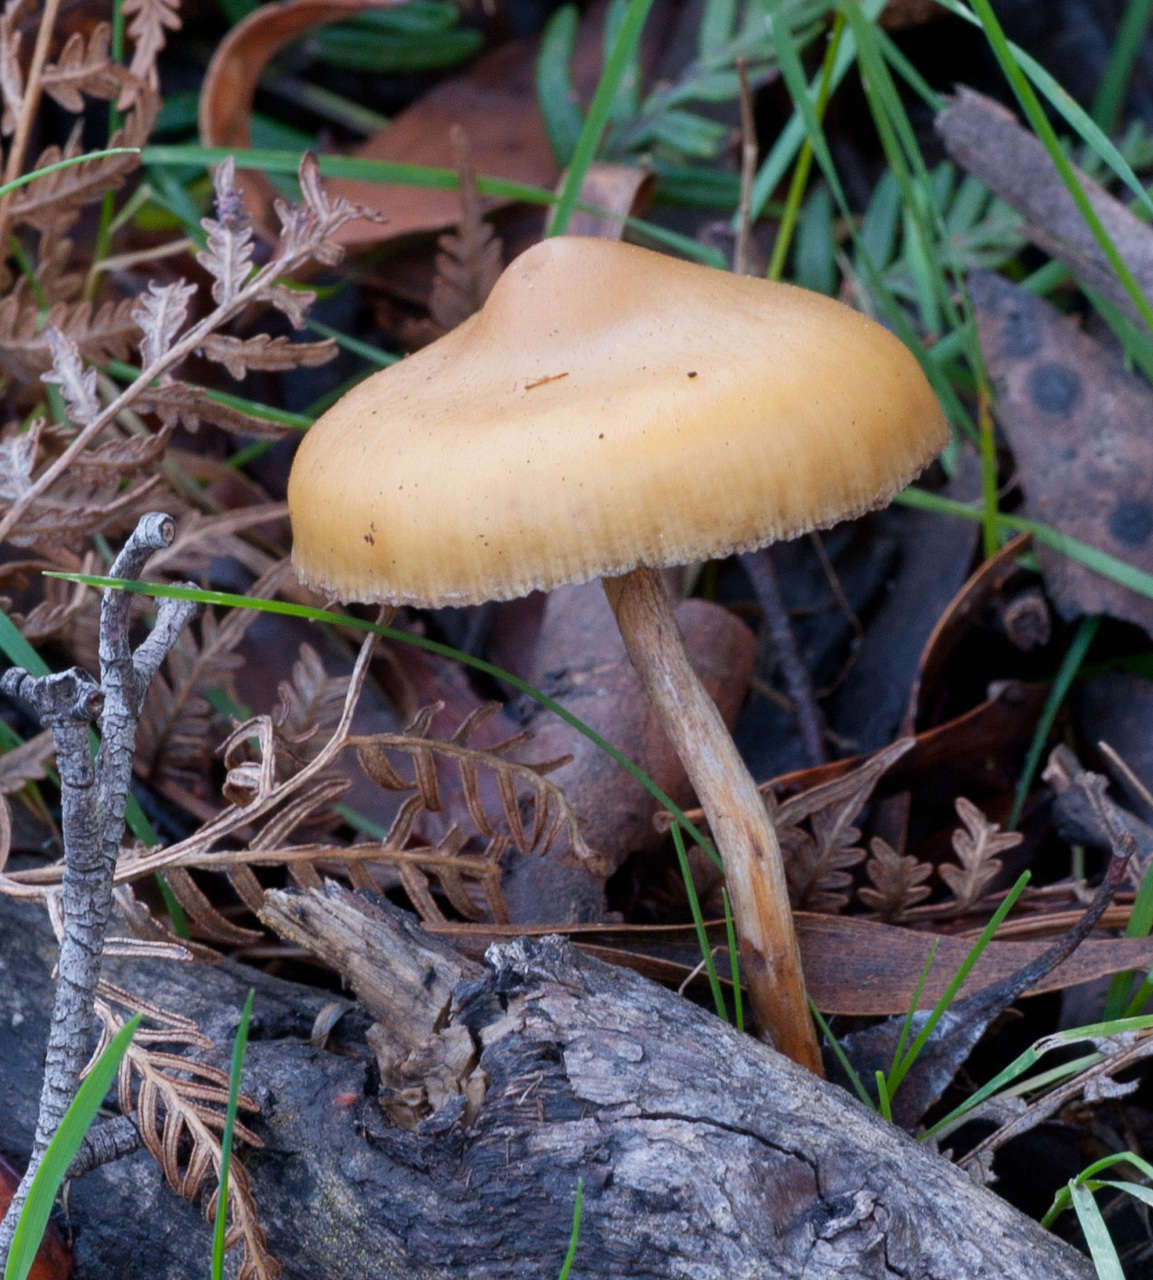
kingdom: Fungi
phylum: Basidiomycota
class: Agaricomycetes
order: Agaricales
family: Hymenogastraceae
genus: Psilocybe
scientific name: Psilocybe subaeruginosa
